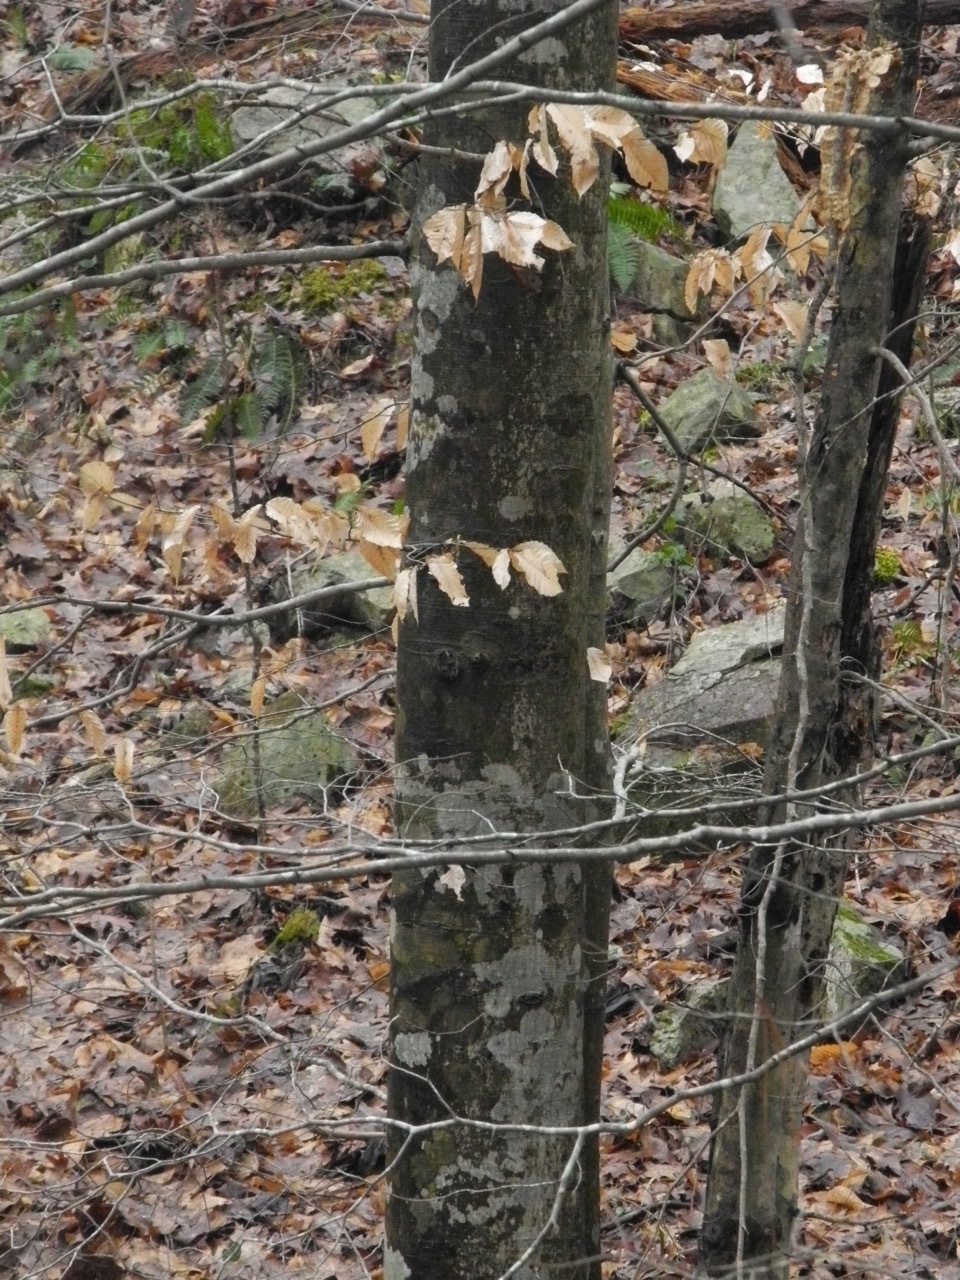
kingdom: Plantae
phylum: Tracheophyta
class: Magnoliopsida
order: Fagales
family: Fagaceae
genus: Fagus
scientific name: Fagus grandifolia
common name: American beech
